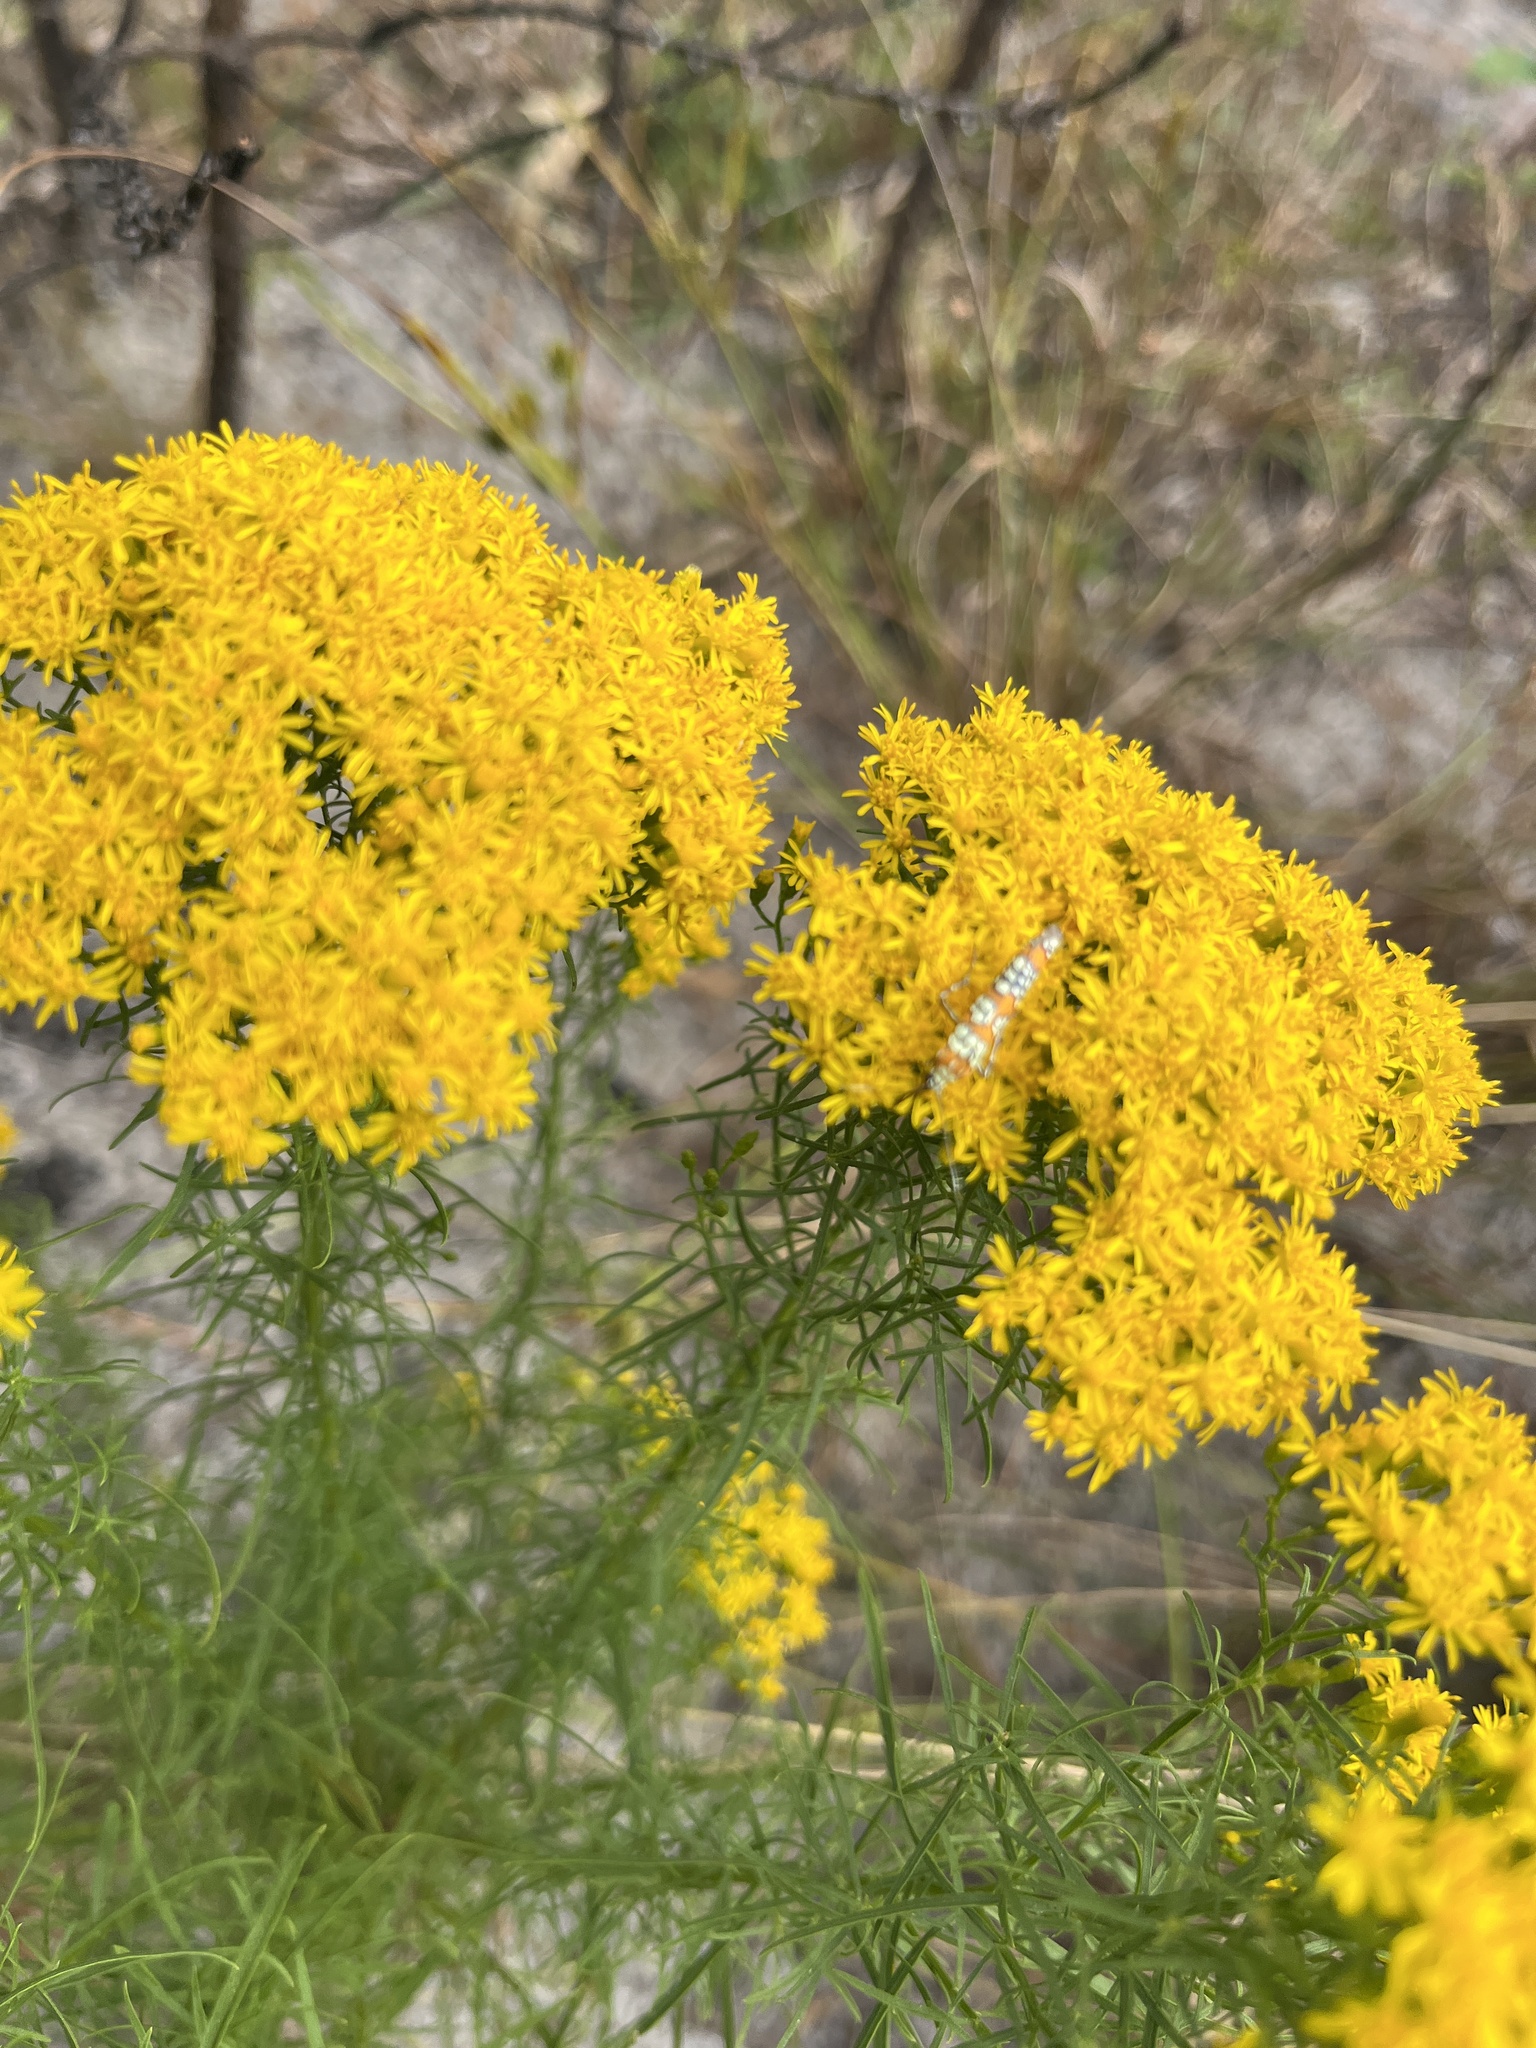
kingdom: Animalia
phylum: Arthropoda
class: Insecta
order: Lepidoptera
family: Attevidae
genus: Atteva
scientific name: Atteva punctella
